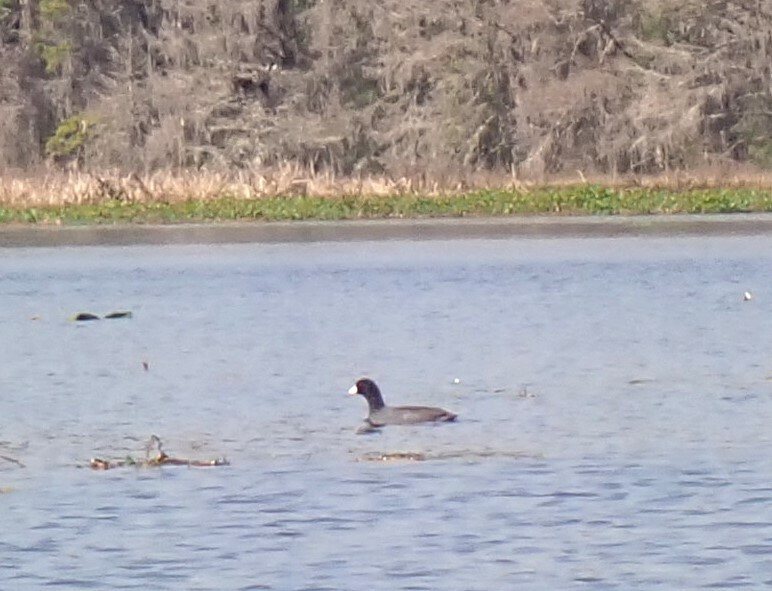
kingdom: Animalia
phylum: Chordata
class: Aves
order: Gruiformes
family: Rallidae
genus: Fulica
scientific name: Fulica americana
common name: American coot
